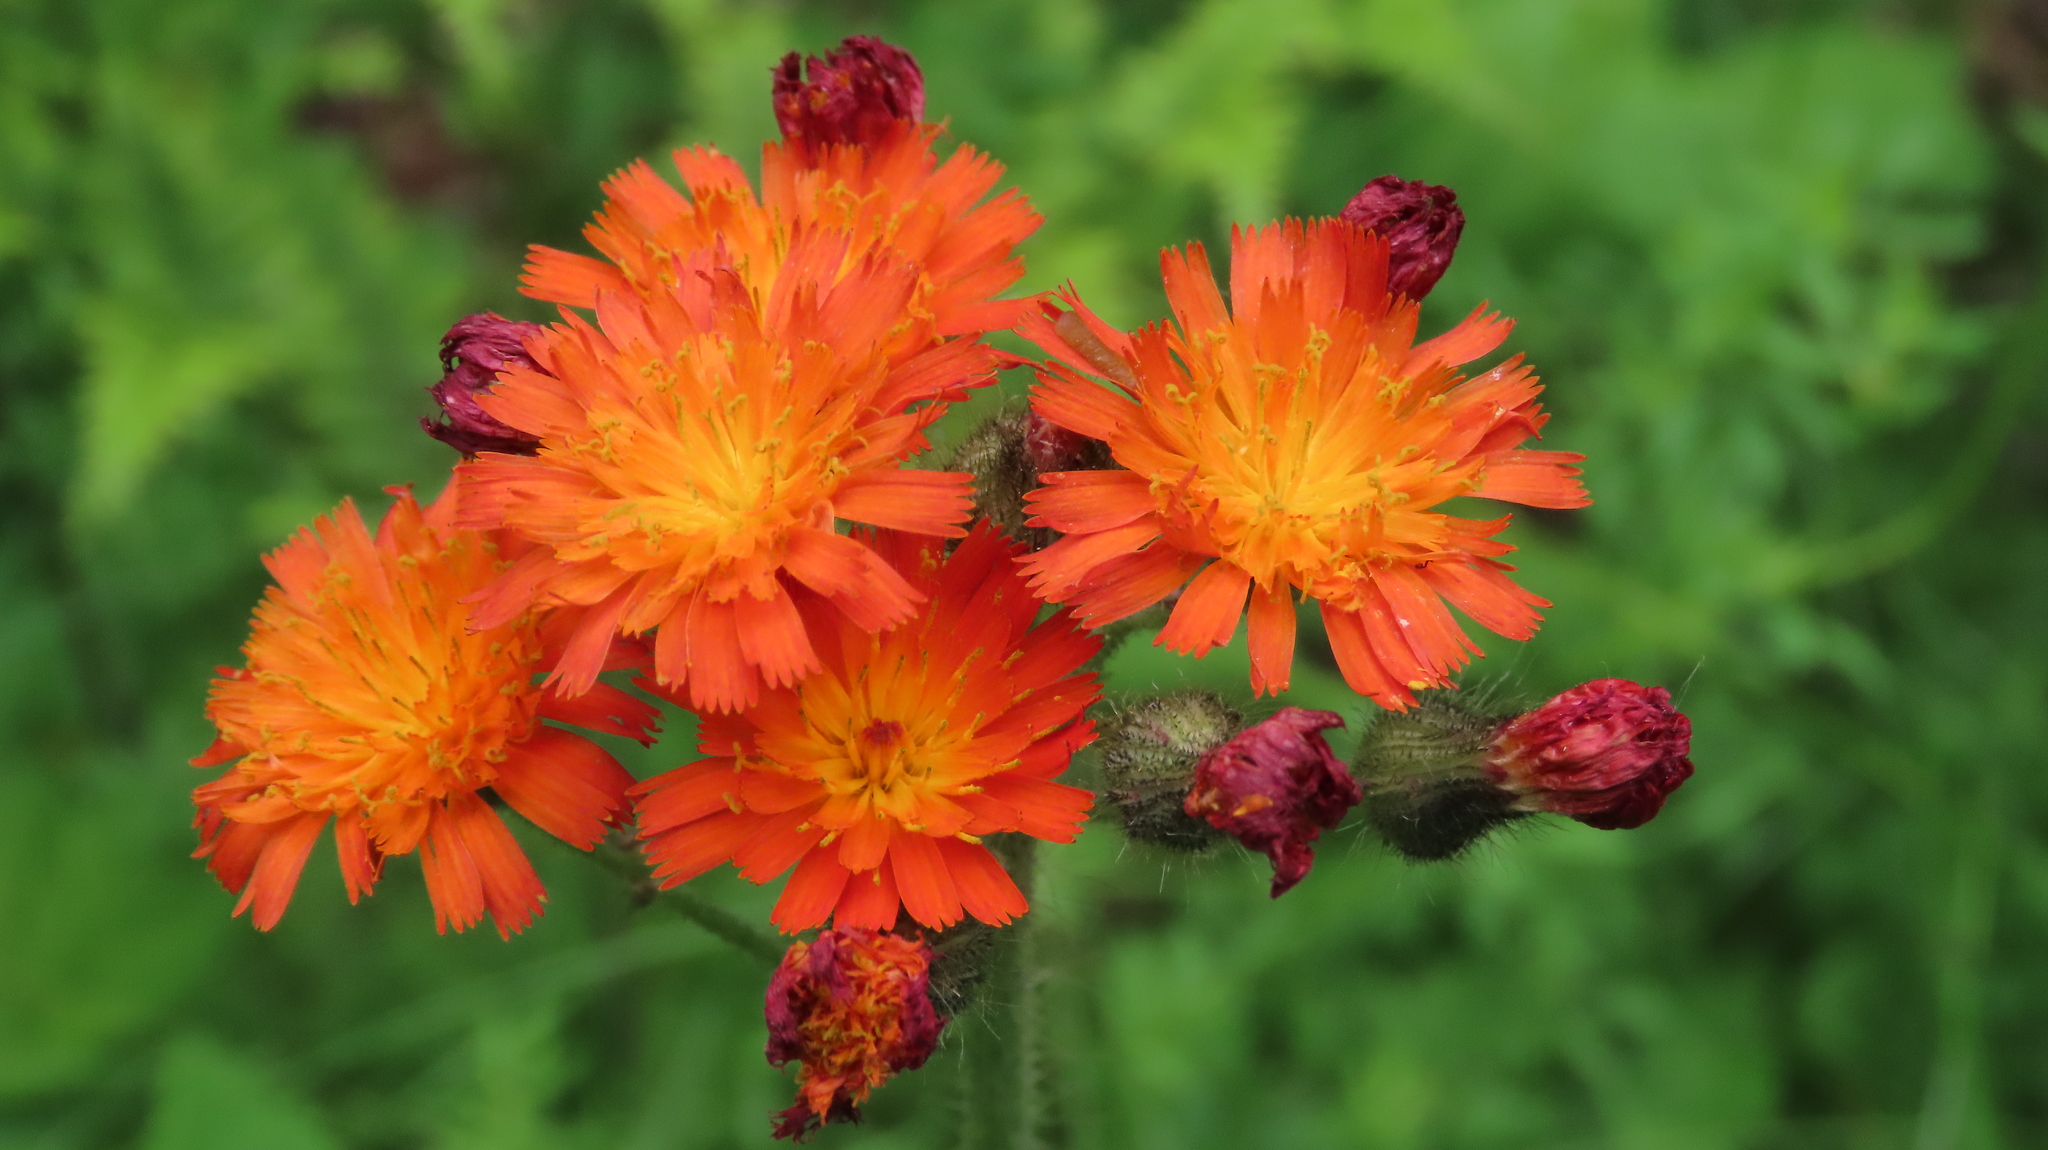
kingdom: Plantae
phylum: Tracheophyta
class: Magnoliopsida
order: Asterales
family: Asteraceae
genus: Pilosella
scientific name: Pilosella aurantiaca
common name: Fox-and-cubs
